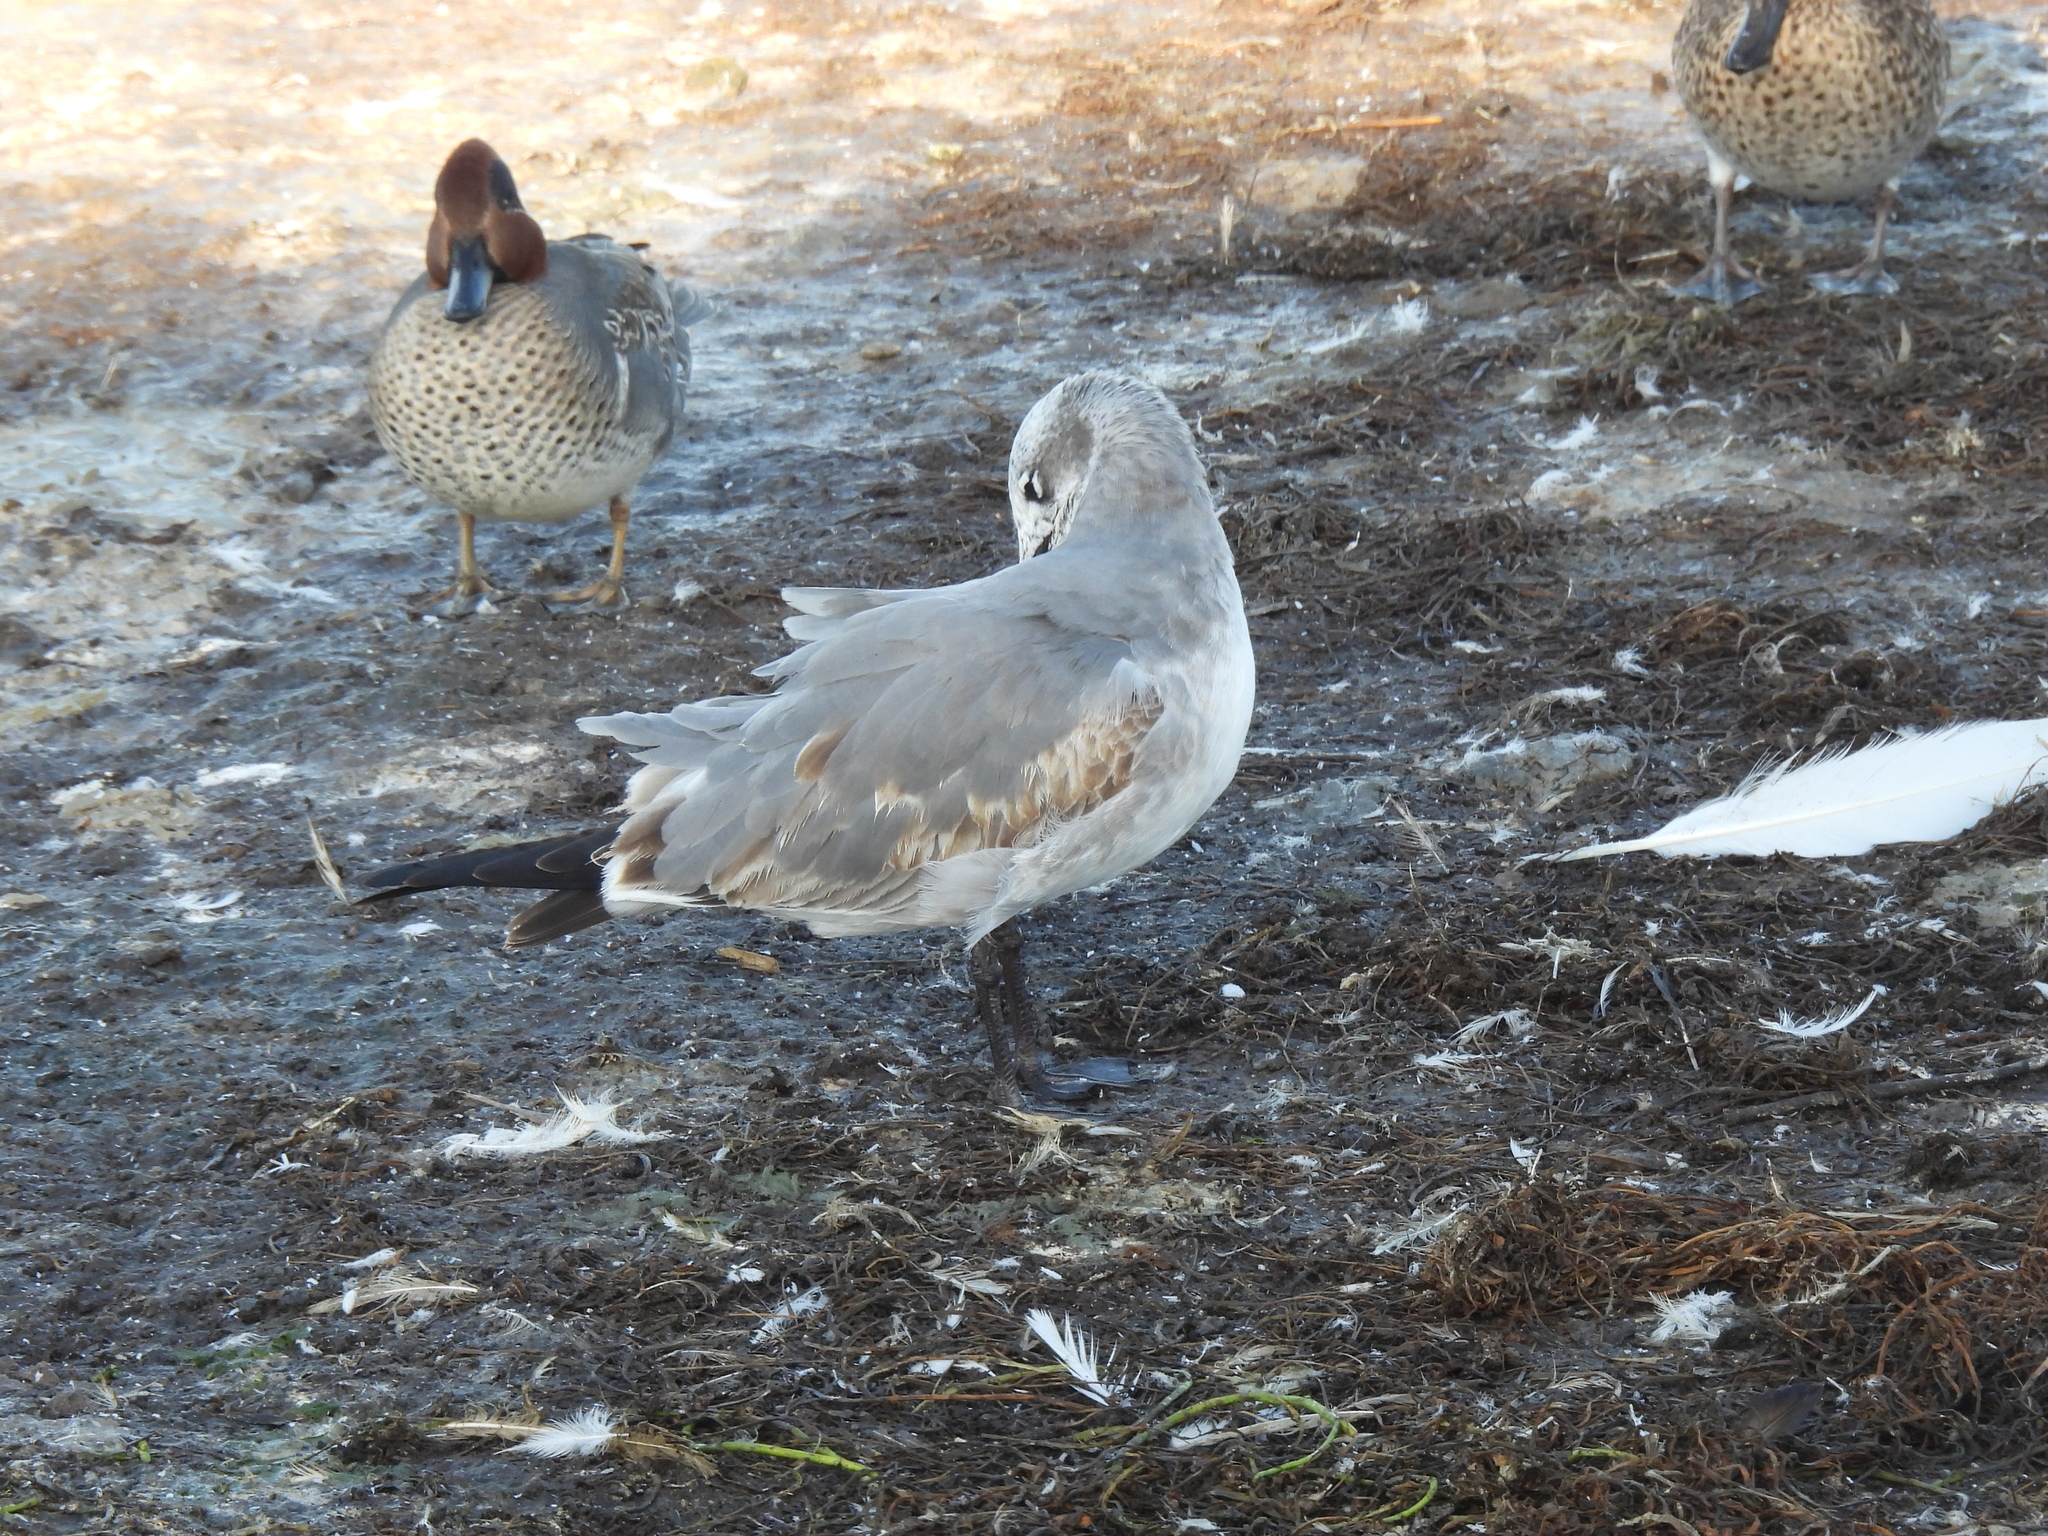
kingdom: Animalia
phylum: Chordata
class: Aves
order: Charadriiformes
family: Laridae
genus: Leucophaeus
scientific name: Leucophaeus atricilla
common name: Laughing gull
